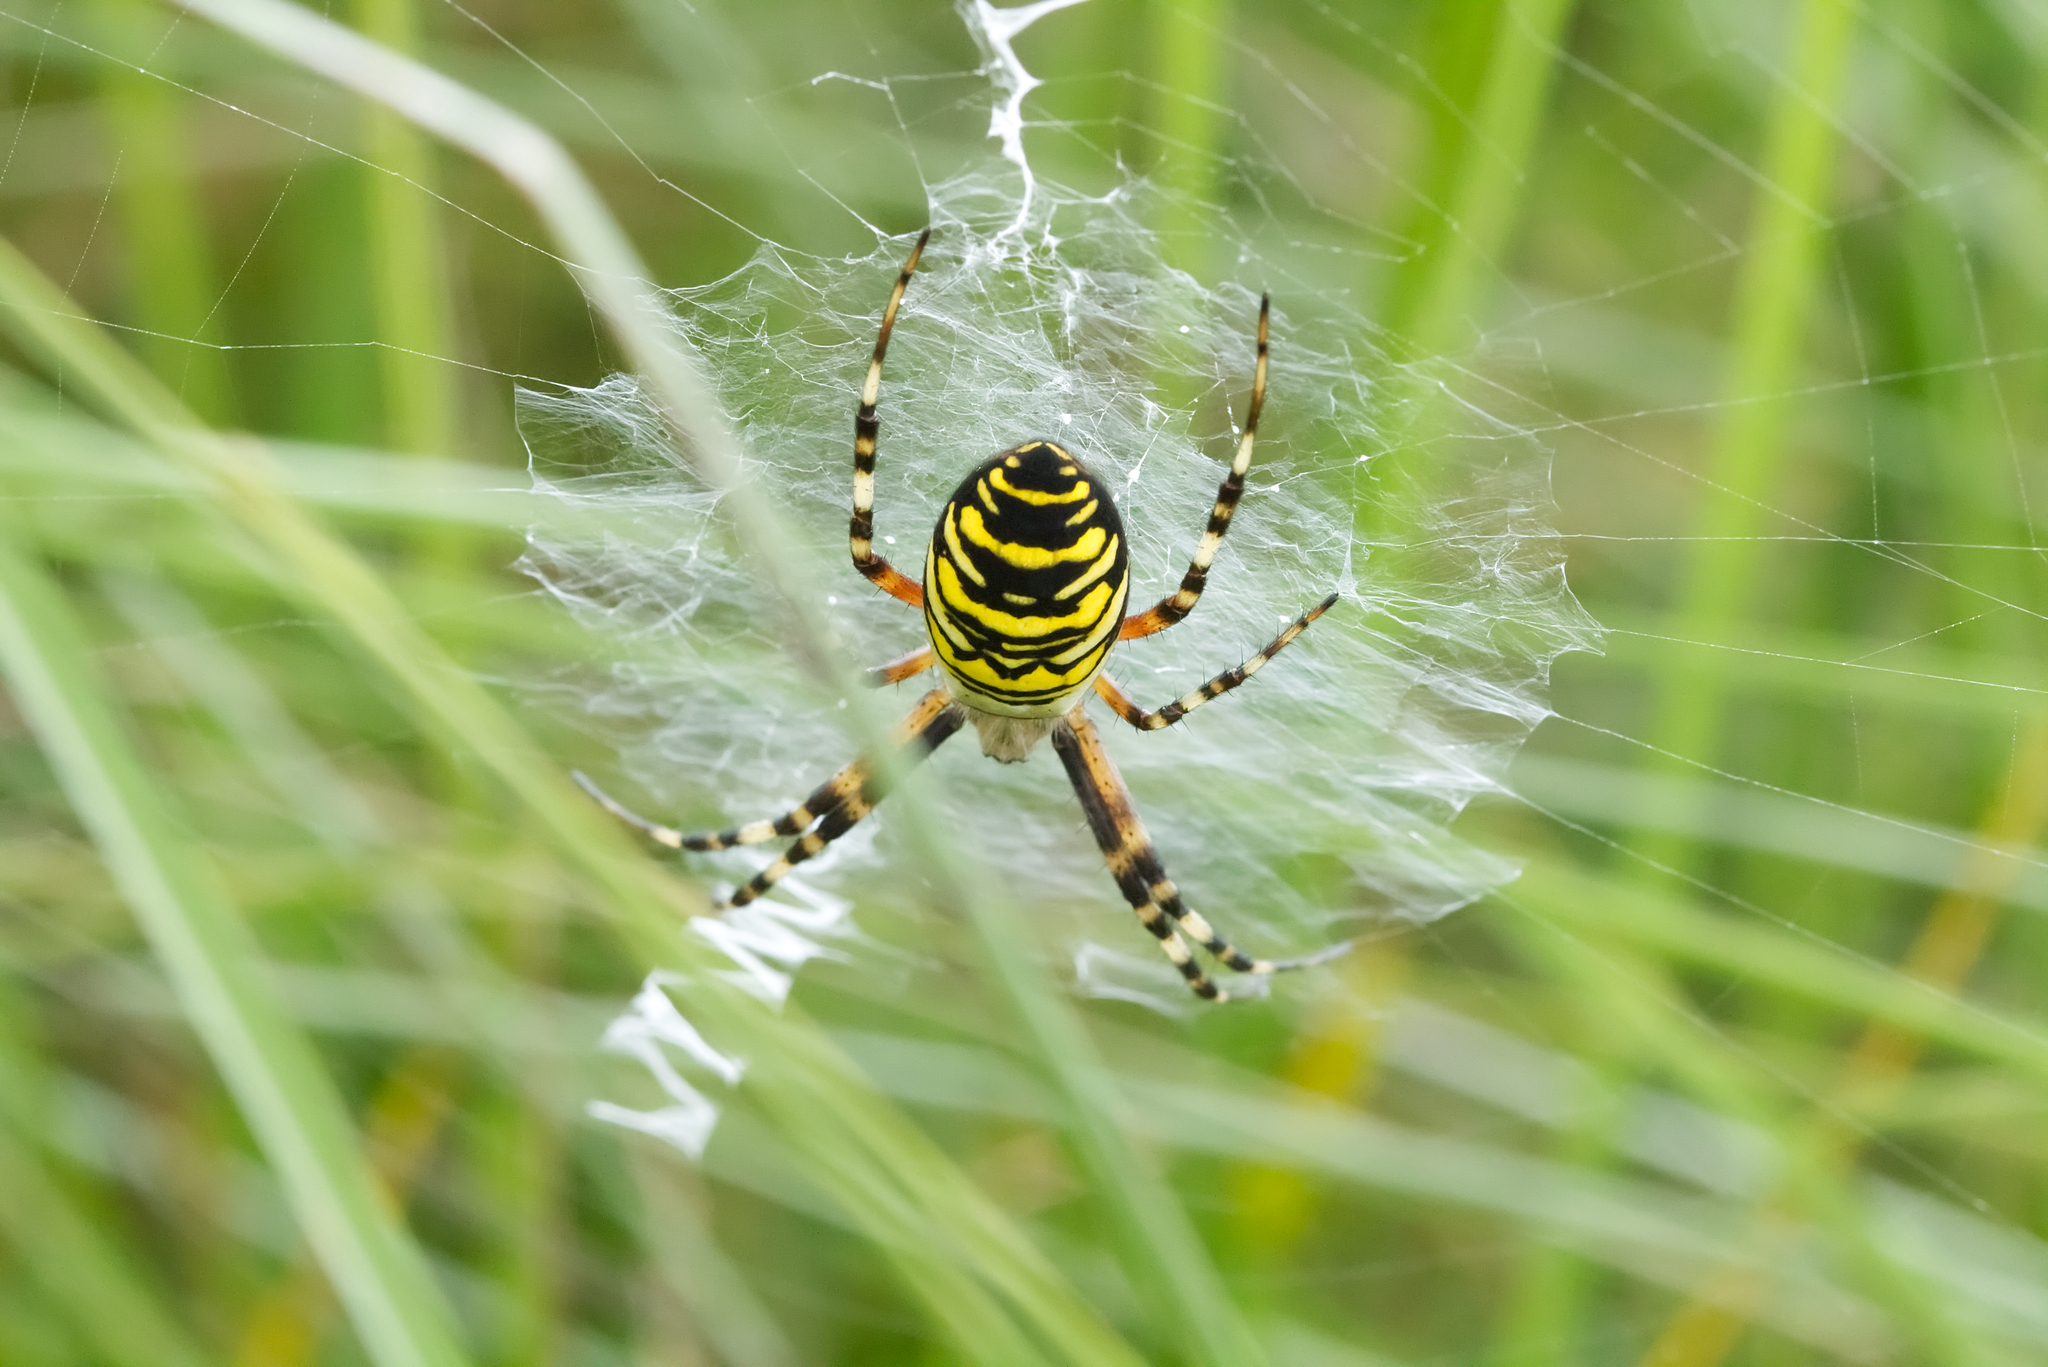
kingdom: Animalia
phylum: Arthropoda
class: Arachnida
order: Araneae
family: Araneidae
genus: Argiope
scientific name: Argiope bruennichi
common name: Wasp spider
